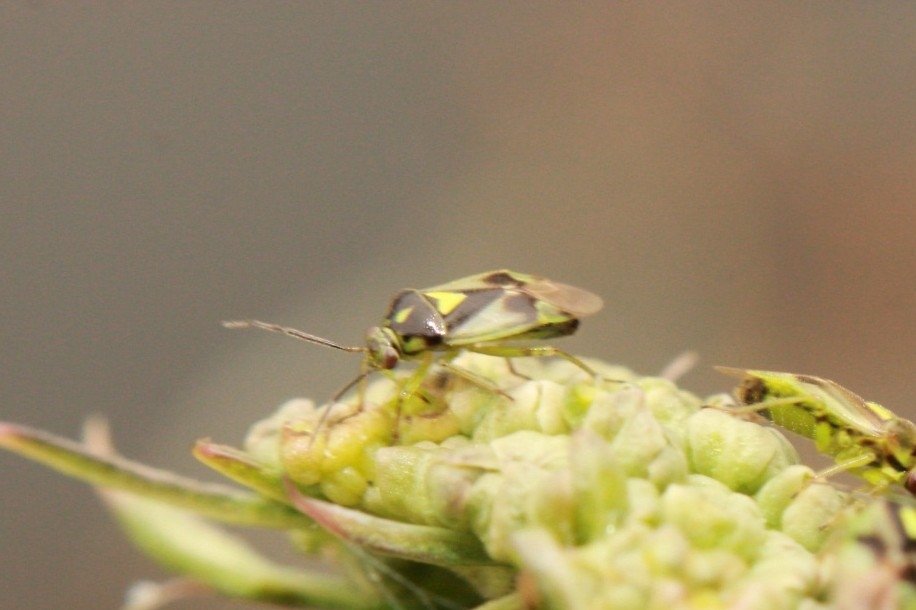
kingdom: Animalia
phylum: Arthropoda
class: Insecta
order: Hemiptera
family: Miridae
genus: Orthops
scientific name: Orthops campestris
